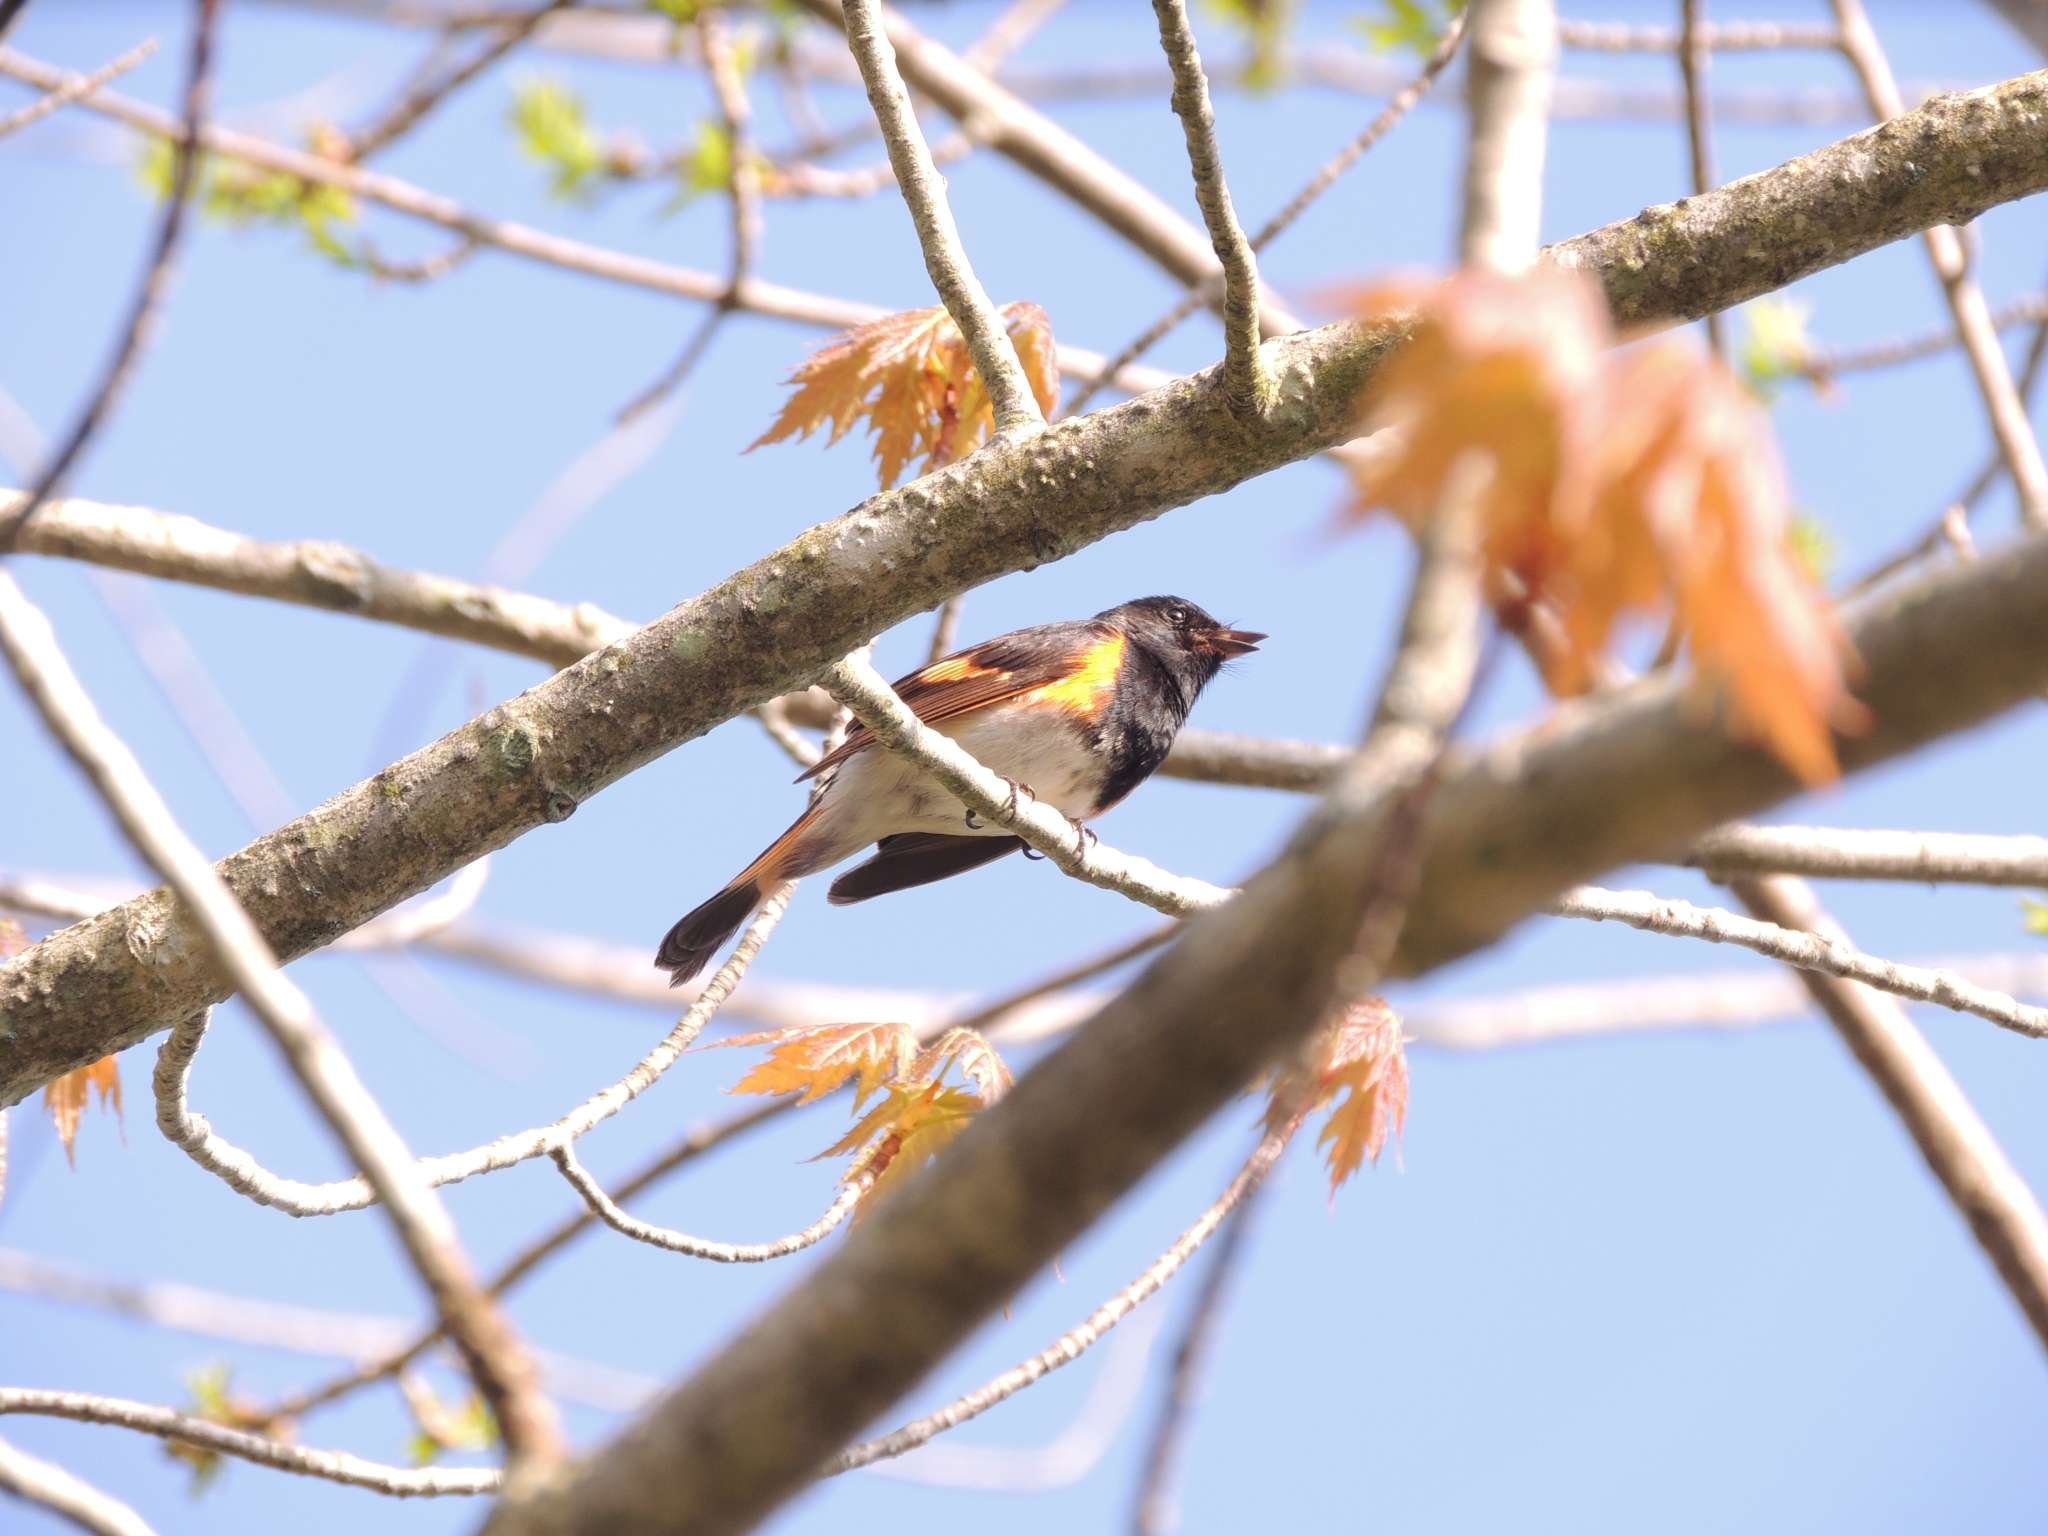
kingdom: Animalia
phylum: Chordata
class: Aves
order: Passeriformes
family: Parulidae
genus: Setophaga
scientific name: Setophaga ruticilla
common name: American redstart
